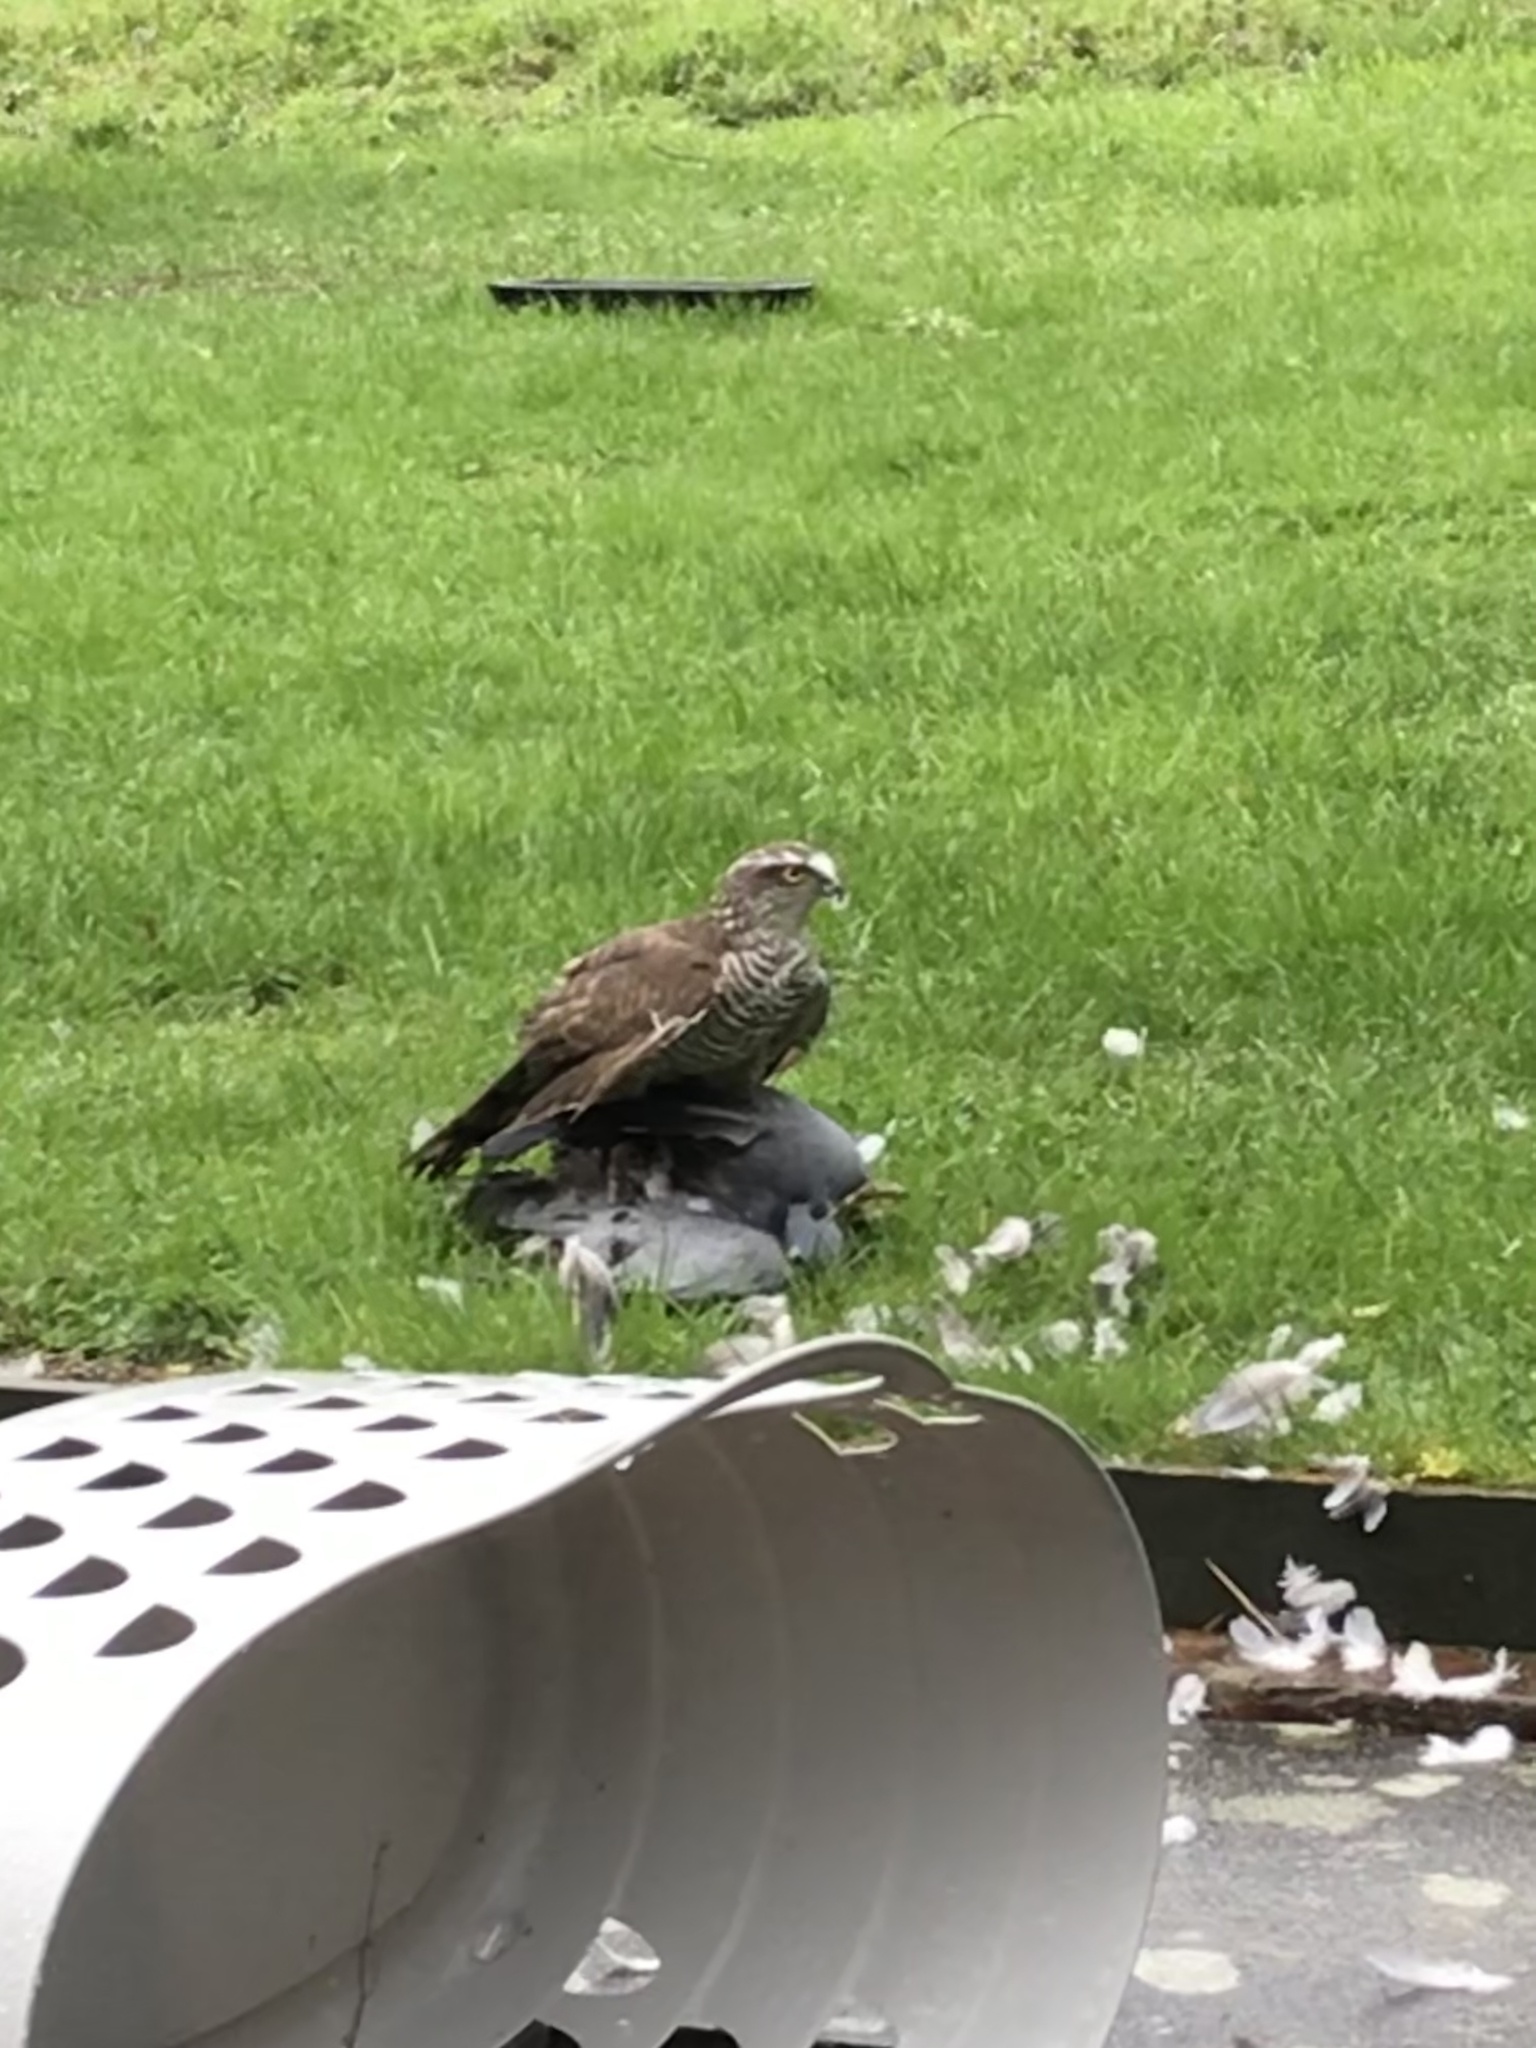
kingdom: Animalia
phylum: Chordata
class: Aves
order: Accipitriformes
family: Accipitridae
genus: Accipiter
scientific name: Accipiter nisus
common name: Eurasian sparrowhawk
